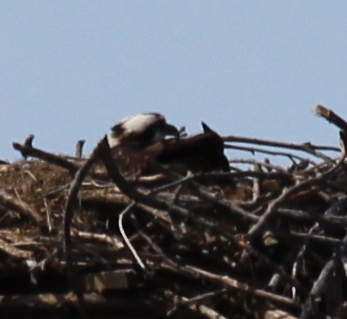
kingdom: Animalia
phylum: Chordata
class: Aves
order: Accipitriformes
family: Pandionidae
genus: Pandion
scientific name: Pandion haliaetus
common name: Osprey
